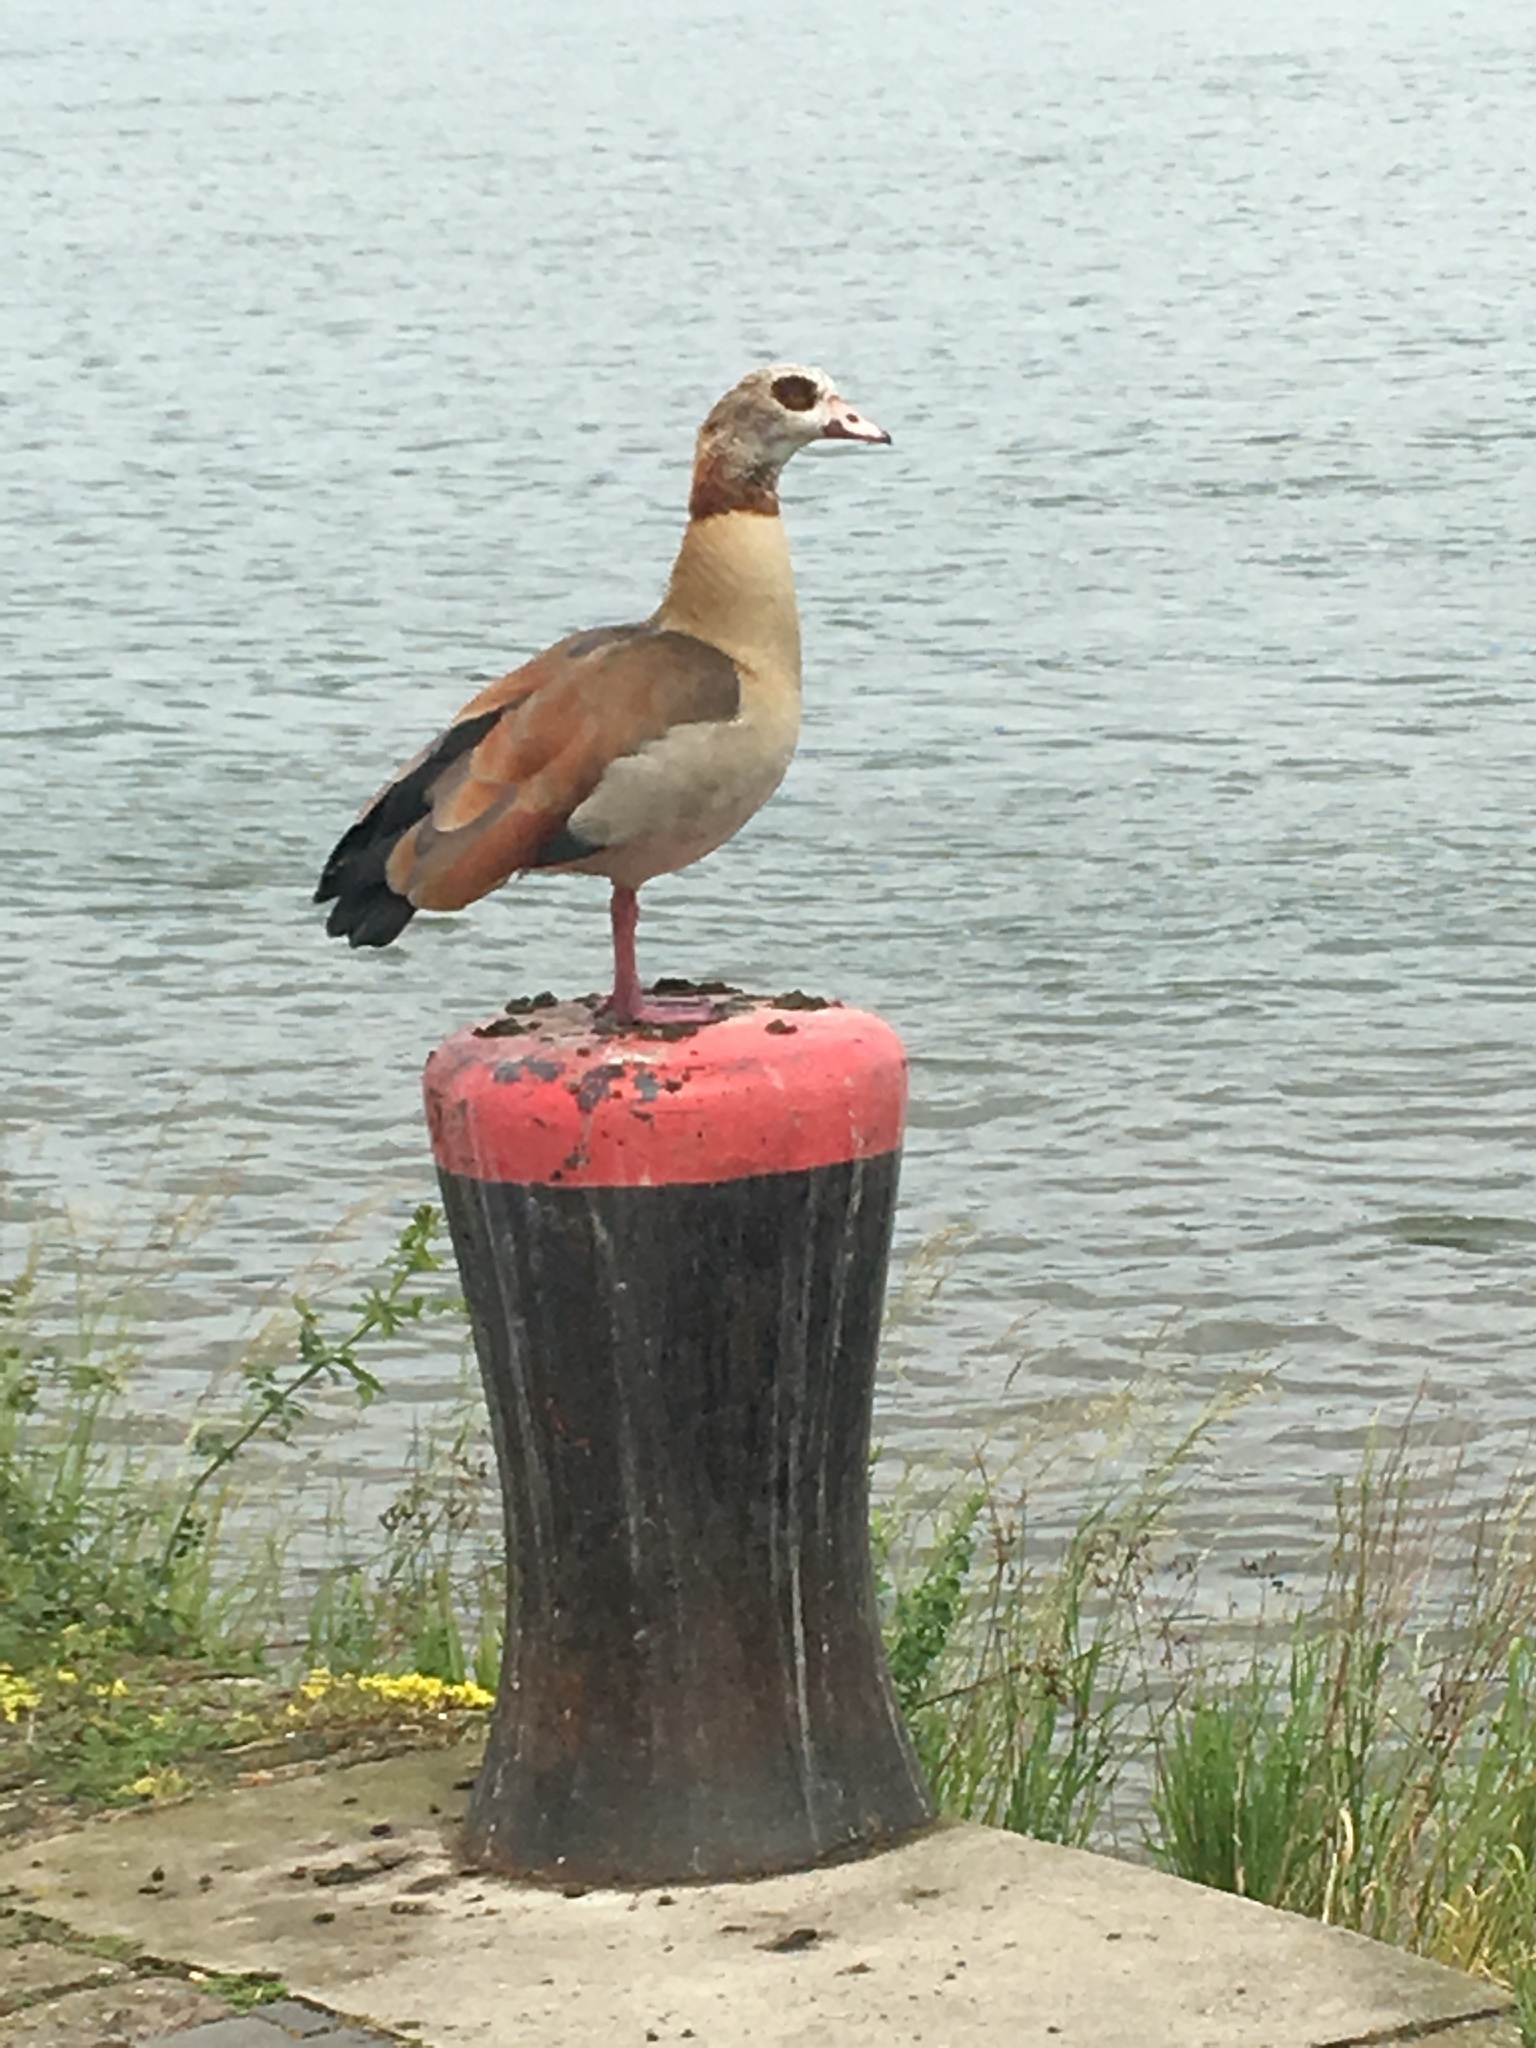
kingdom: Animalia
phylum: Chordata
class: Aves
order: Anseriformes
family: Anatidae
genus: Alopochen
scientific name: Alopochen aegyptiaca
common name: Egyptian goose
